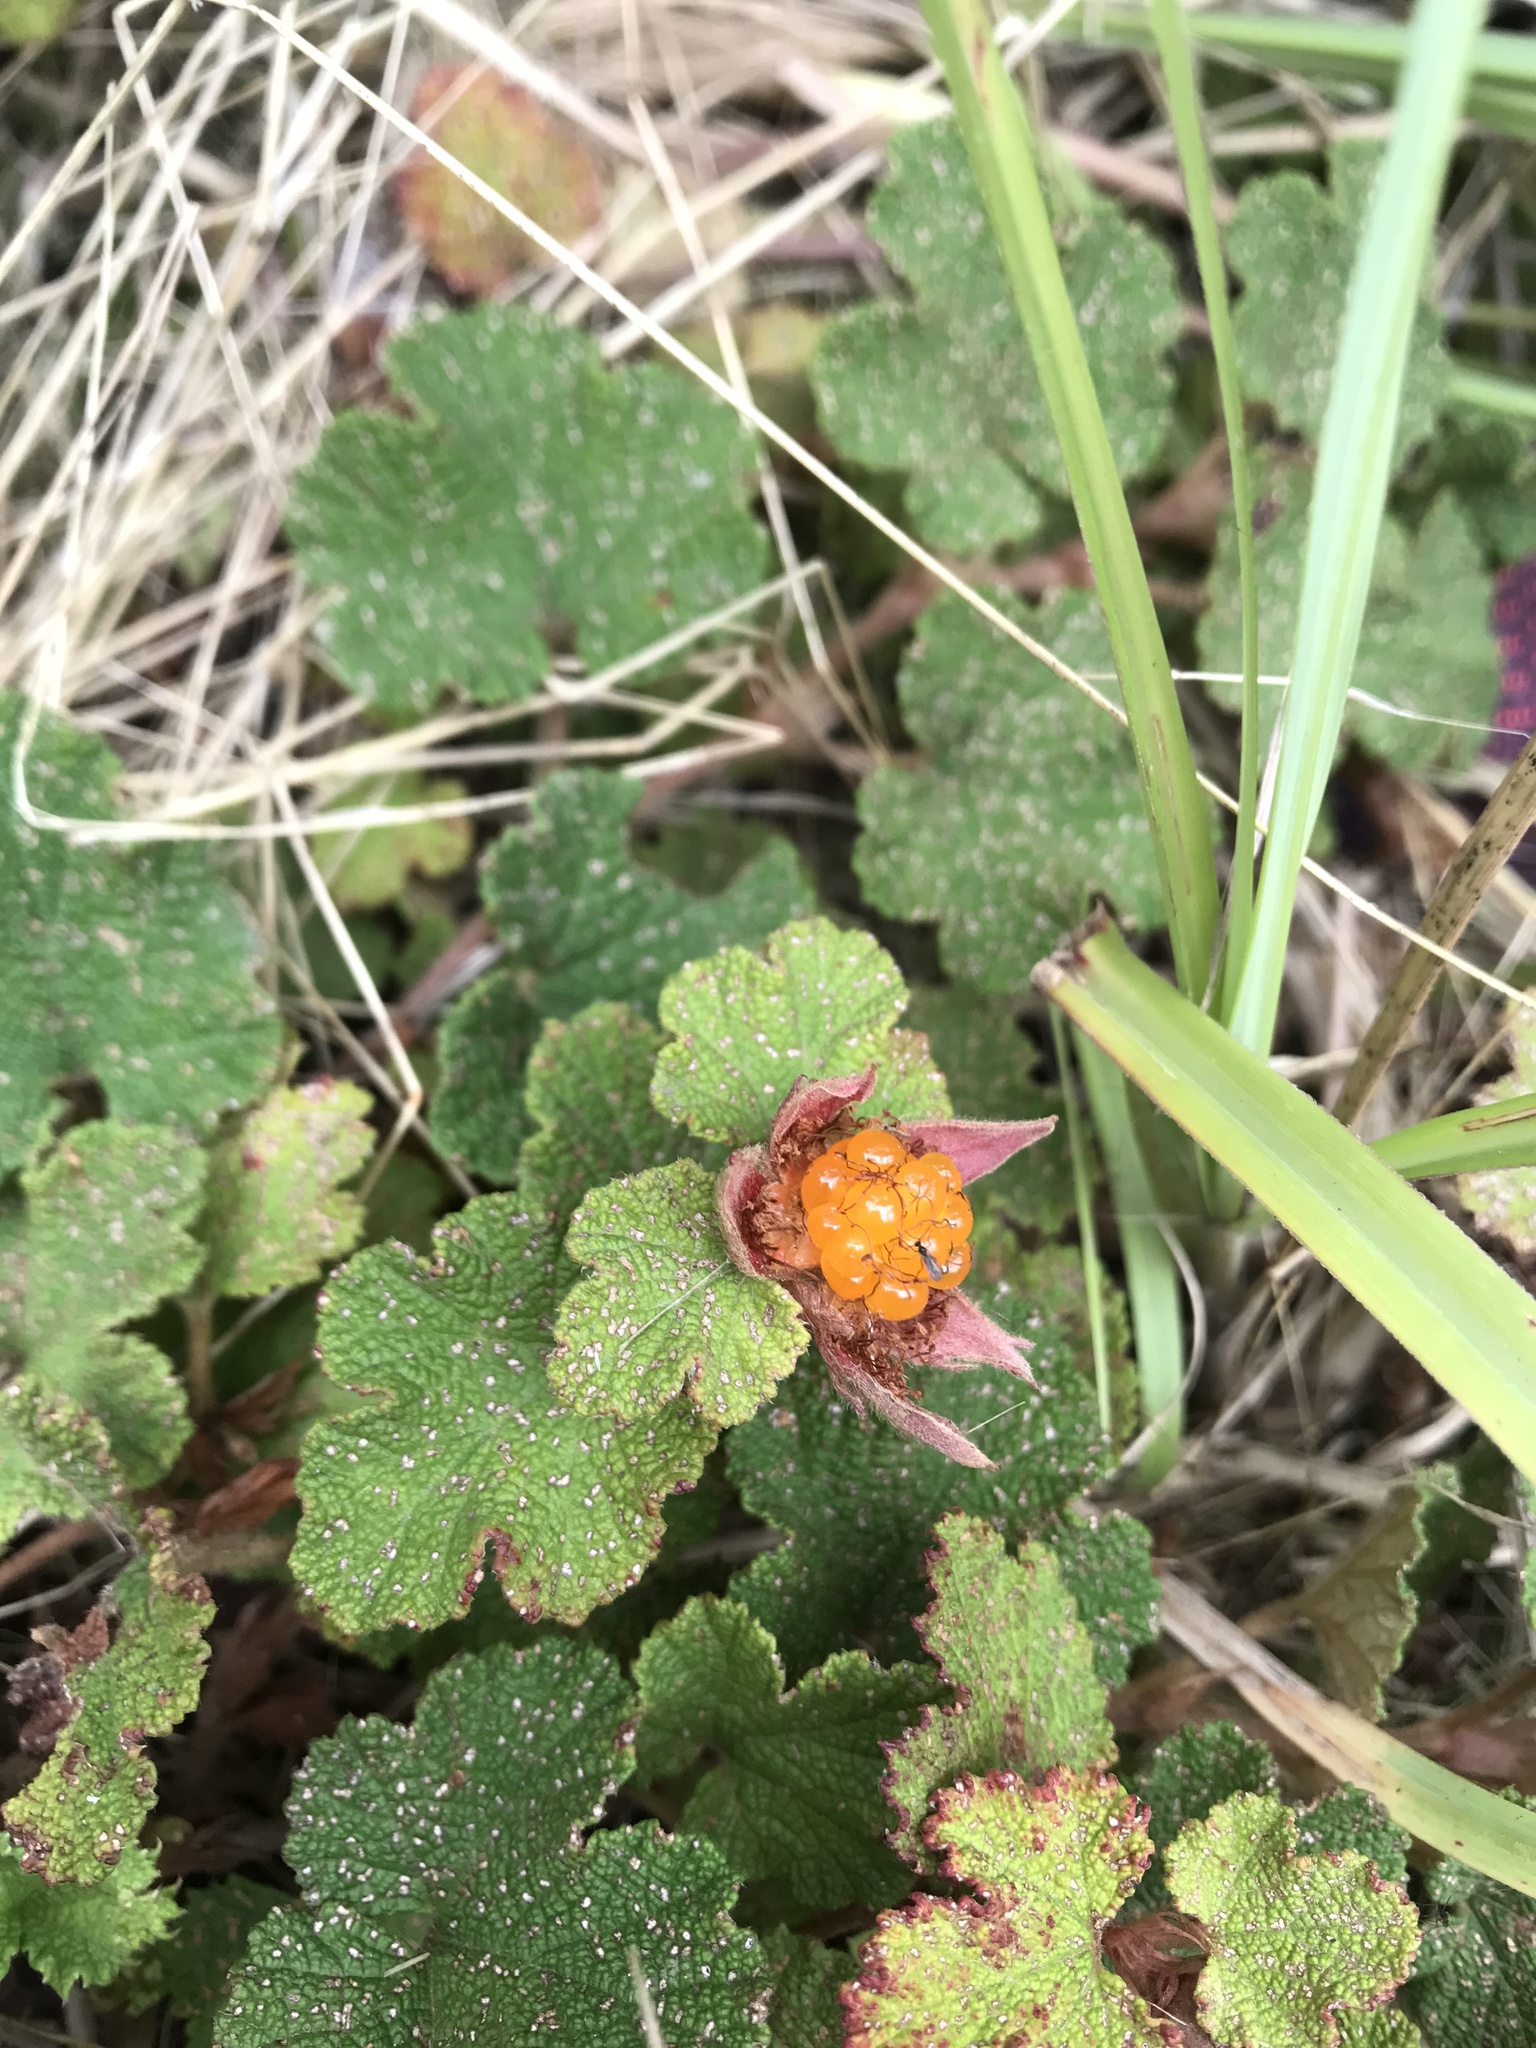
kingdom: Plantae
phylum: Tracheophyta
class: Magnoliopsida
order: Rosales
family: Rosaceae
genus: Rubus
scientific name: Rubus rolfei
